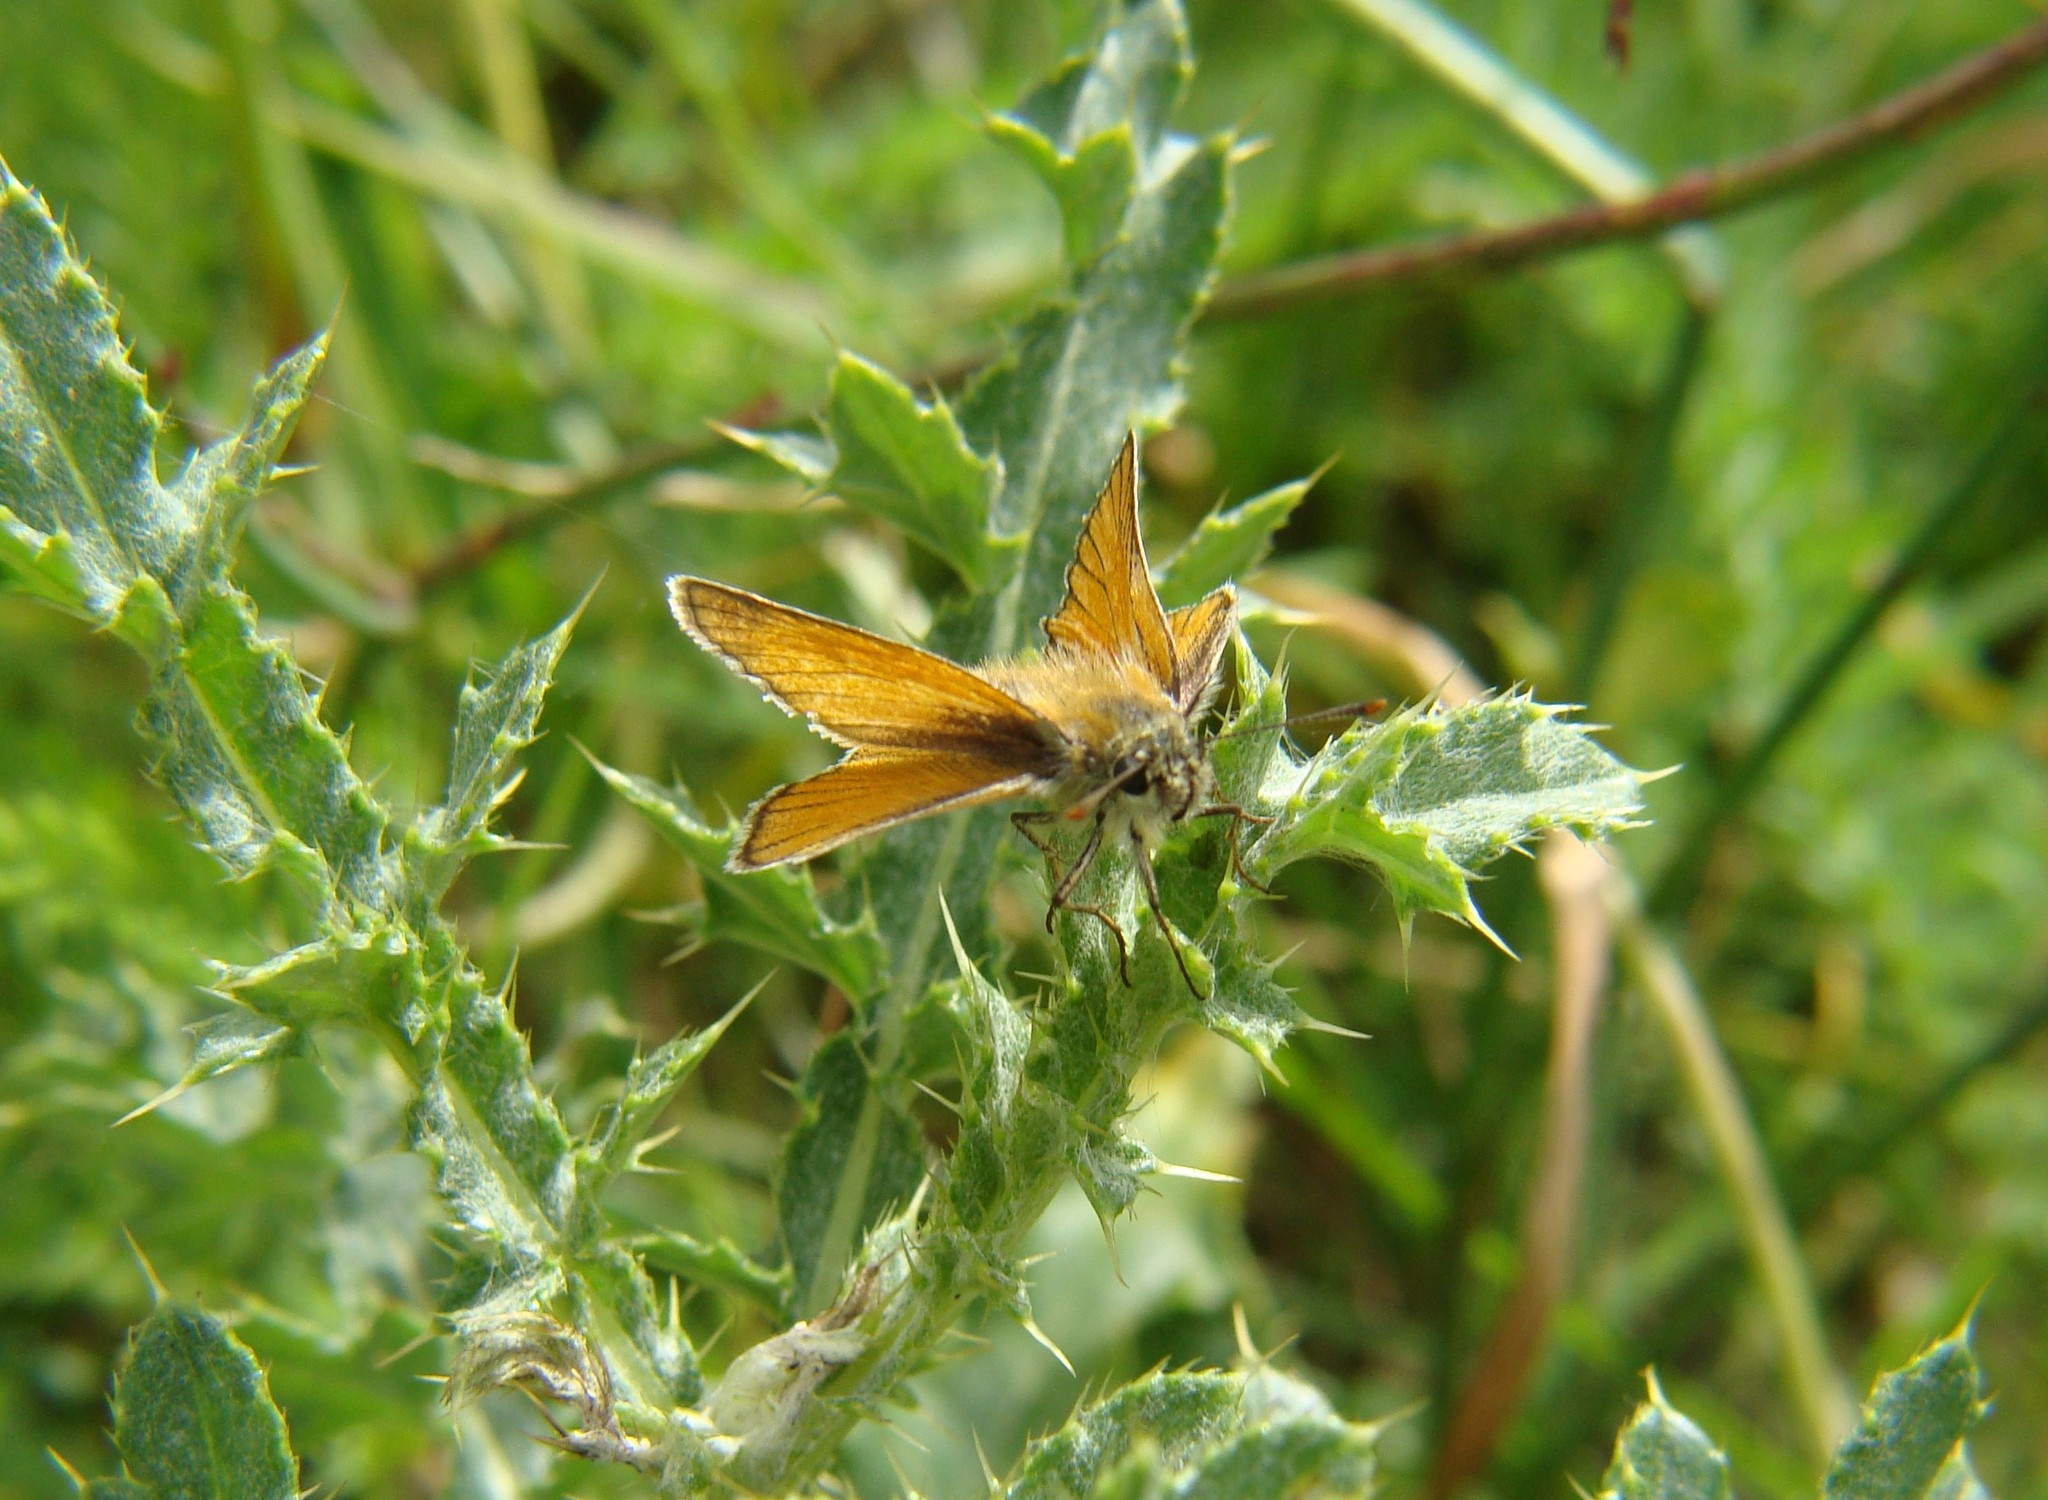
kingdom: Animalia
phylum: Arthropoda
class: Insecta
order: Lepidoptera
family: Hesperiidae
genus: Thymelicus
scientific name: Thymelicus sylvestris
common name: Small skipper
